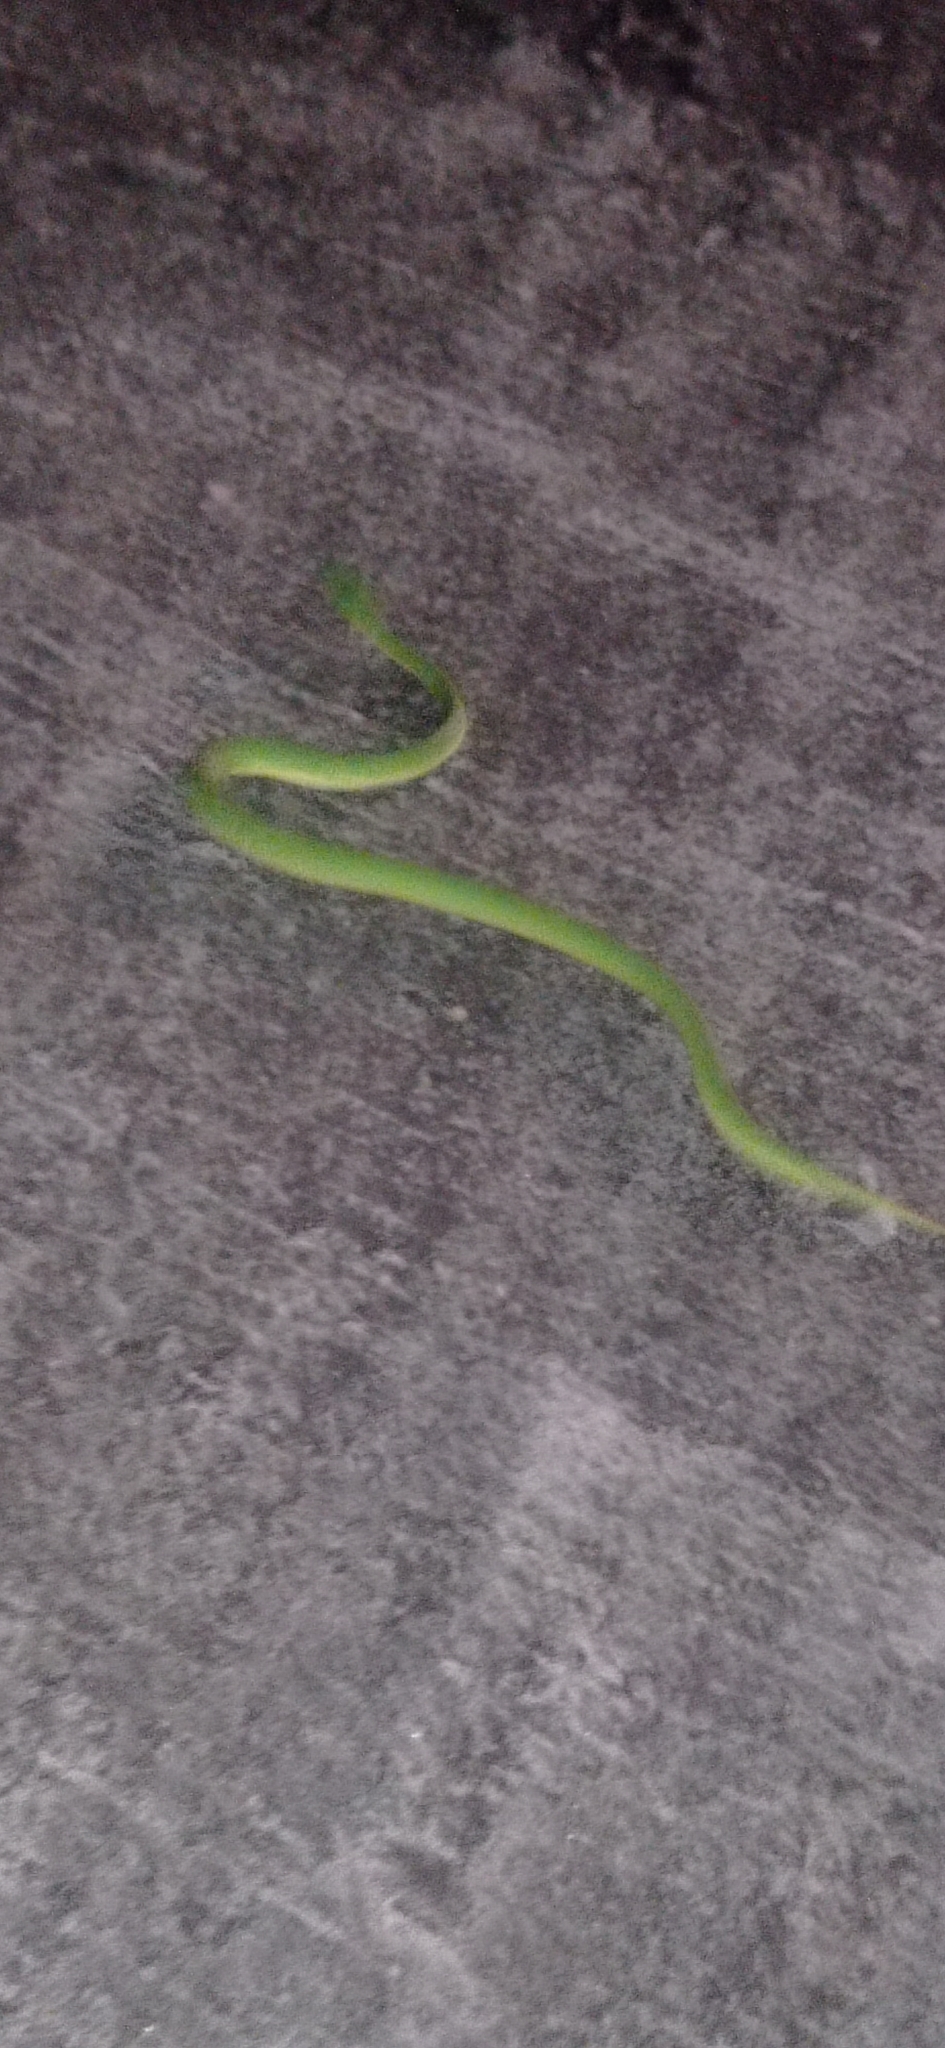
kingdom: Animalia
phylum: Chordata
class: Squamata
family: Viperidae
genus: Trimeresurus
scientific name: Trimeresurus albolabris
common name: White-lipped pitviper
